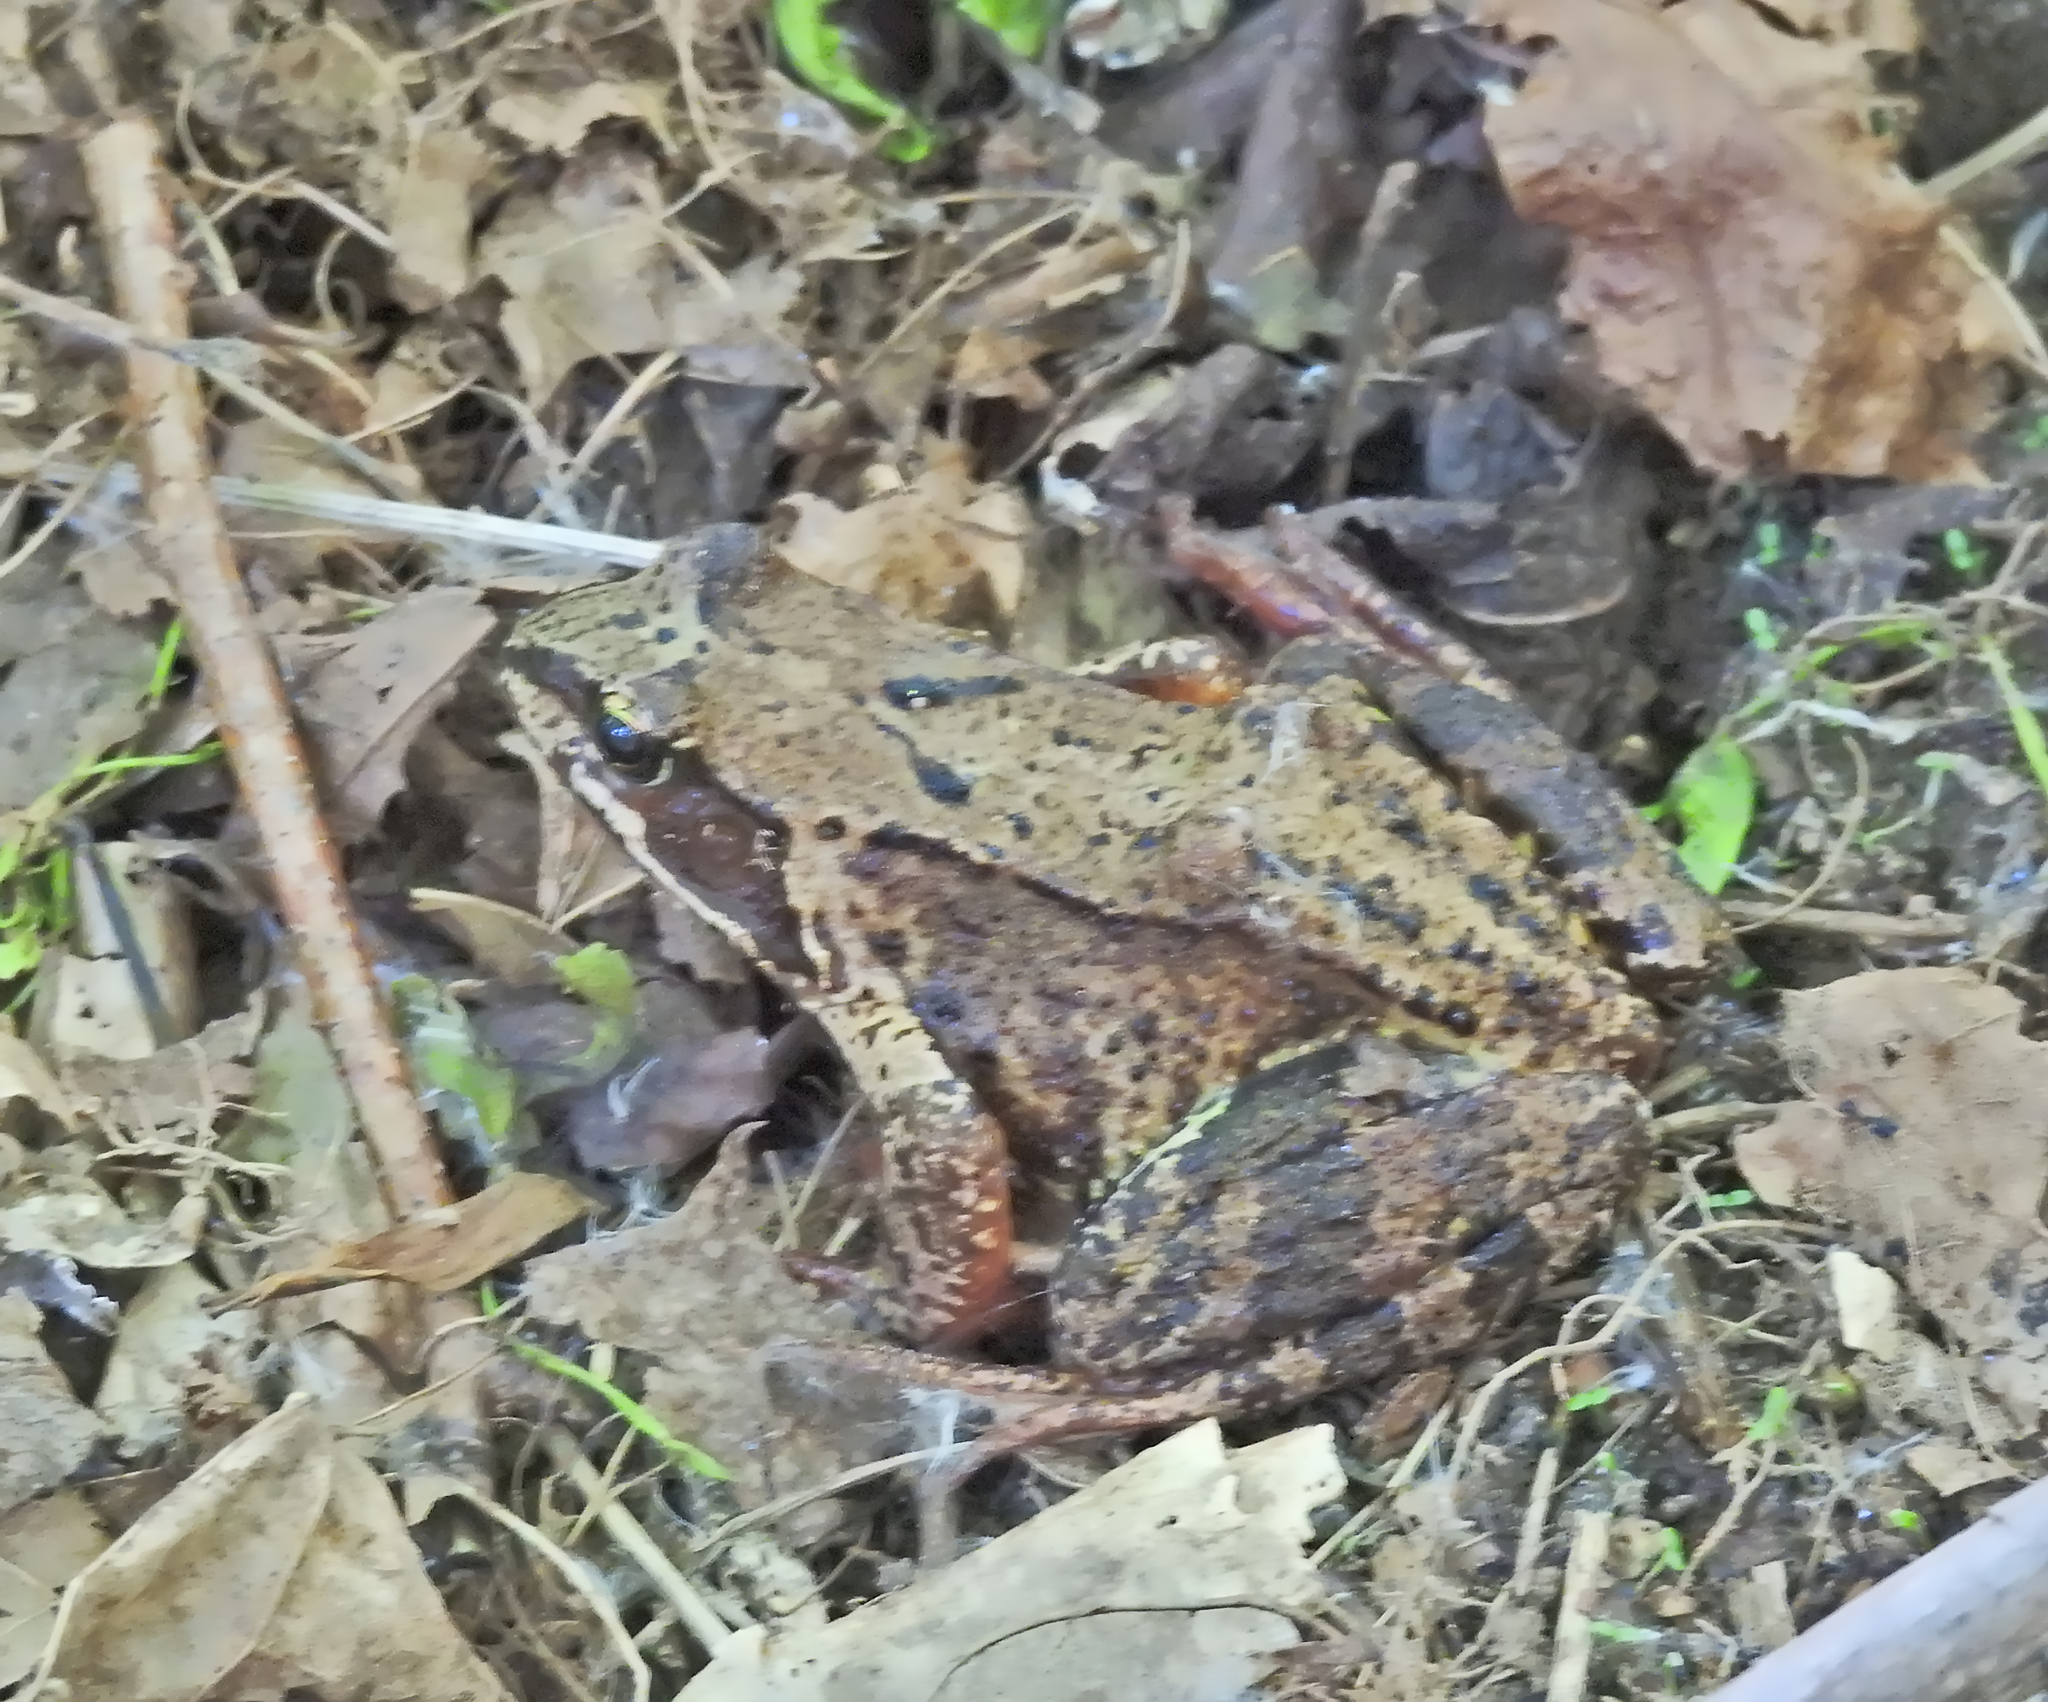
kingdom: Animalia
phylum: Chordata
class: Amphibia
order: Anura
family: Ranidae
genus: Rana
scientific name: Rana temporaria
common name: Common frog
